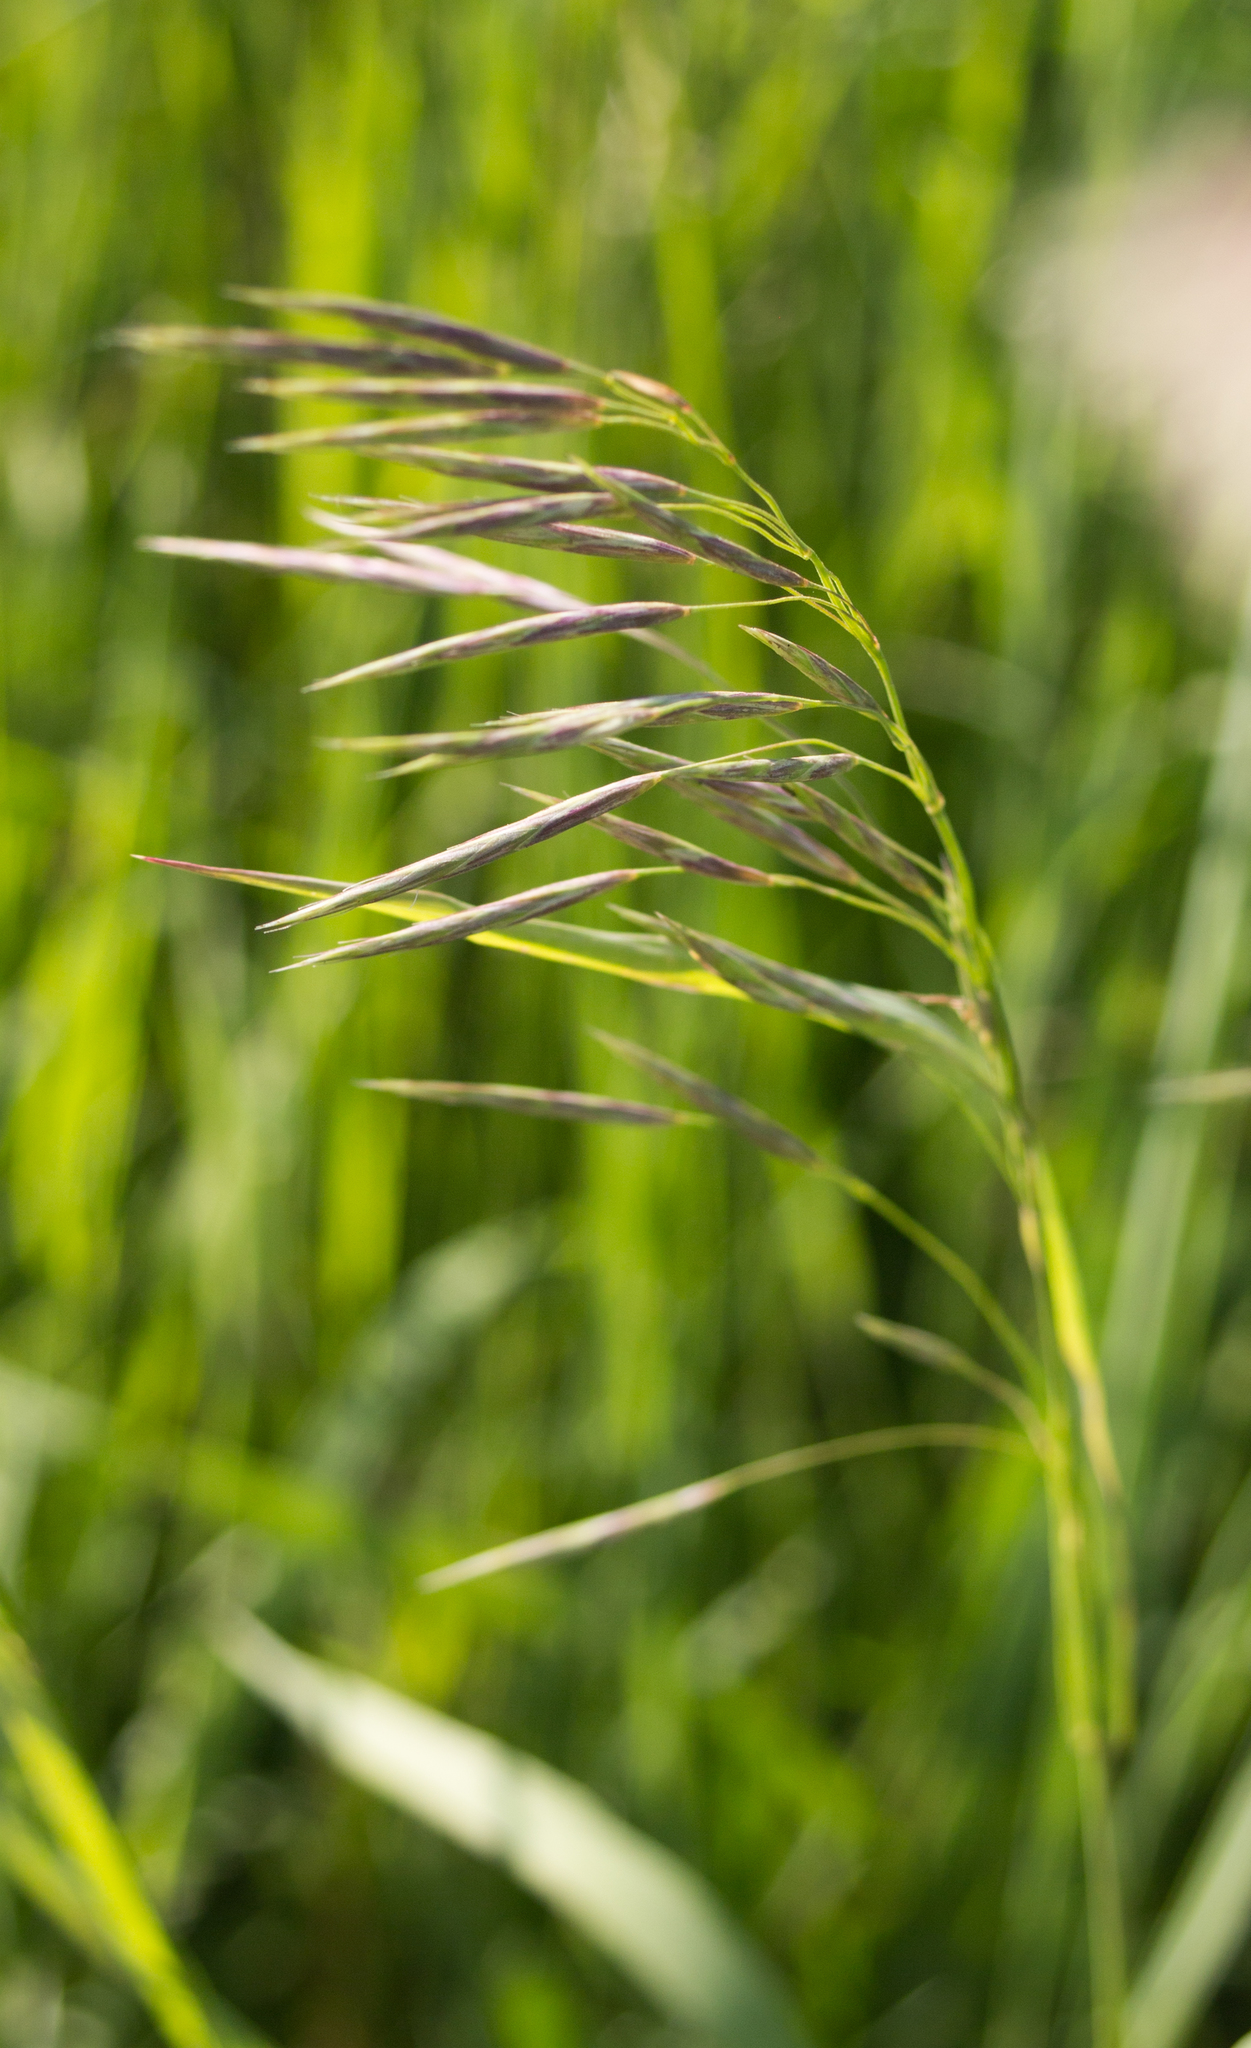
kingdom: Plantae
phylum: Tracheophyta
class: Liliopsida
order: Poales
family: Poaceae
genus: Bromus
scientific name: Bromus inermis
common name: Smooth brome
